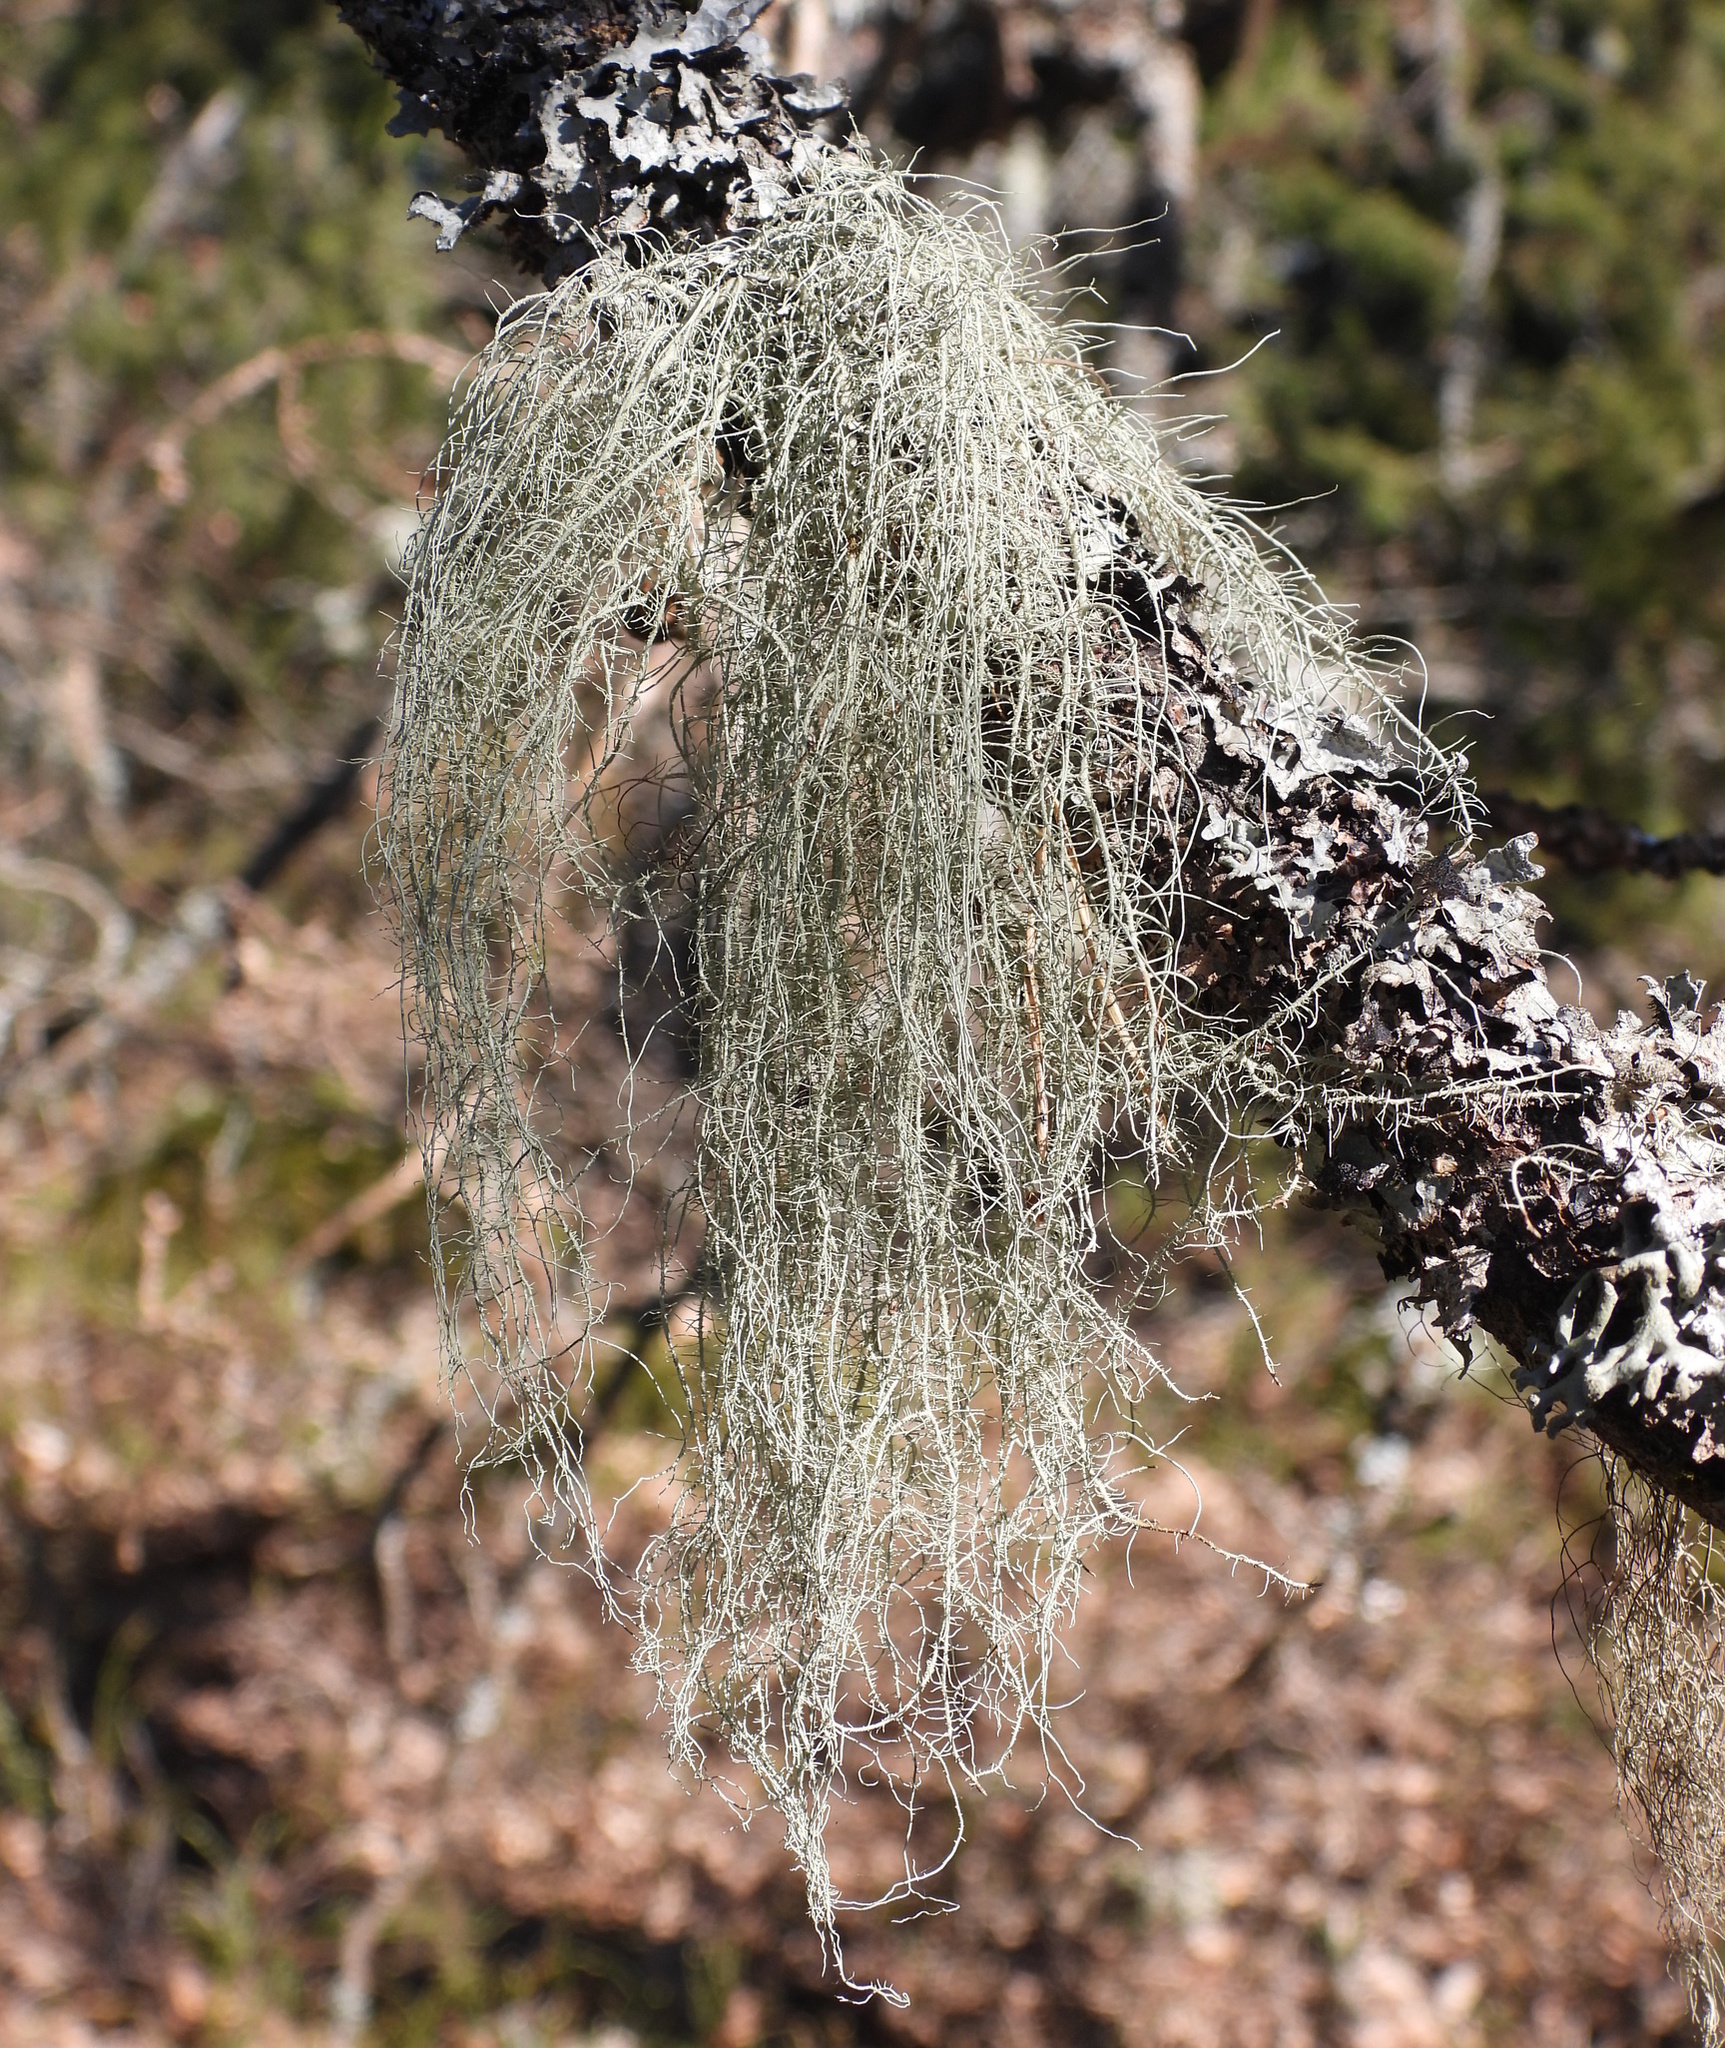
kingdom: Fungi
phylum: Ascomycota
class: Lecanoromycetes
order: Lecanorales
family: Parmeliaceae
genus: Usnea
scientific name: Usnea dasopoga
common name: Fishbone beard lichen
